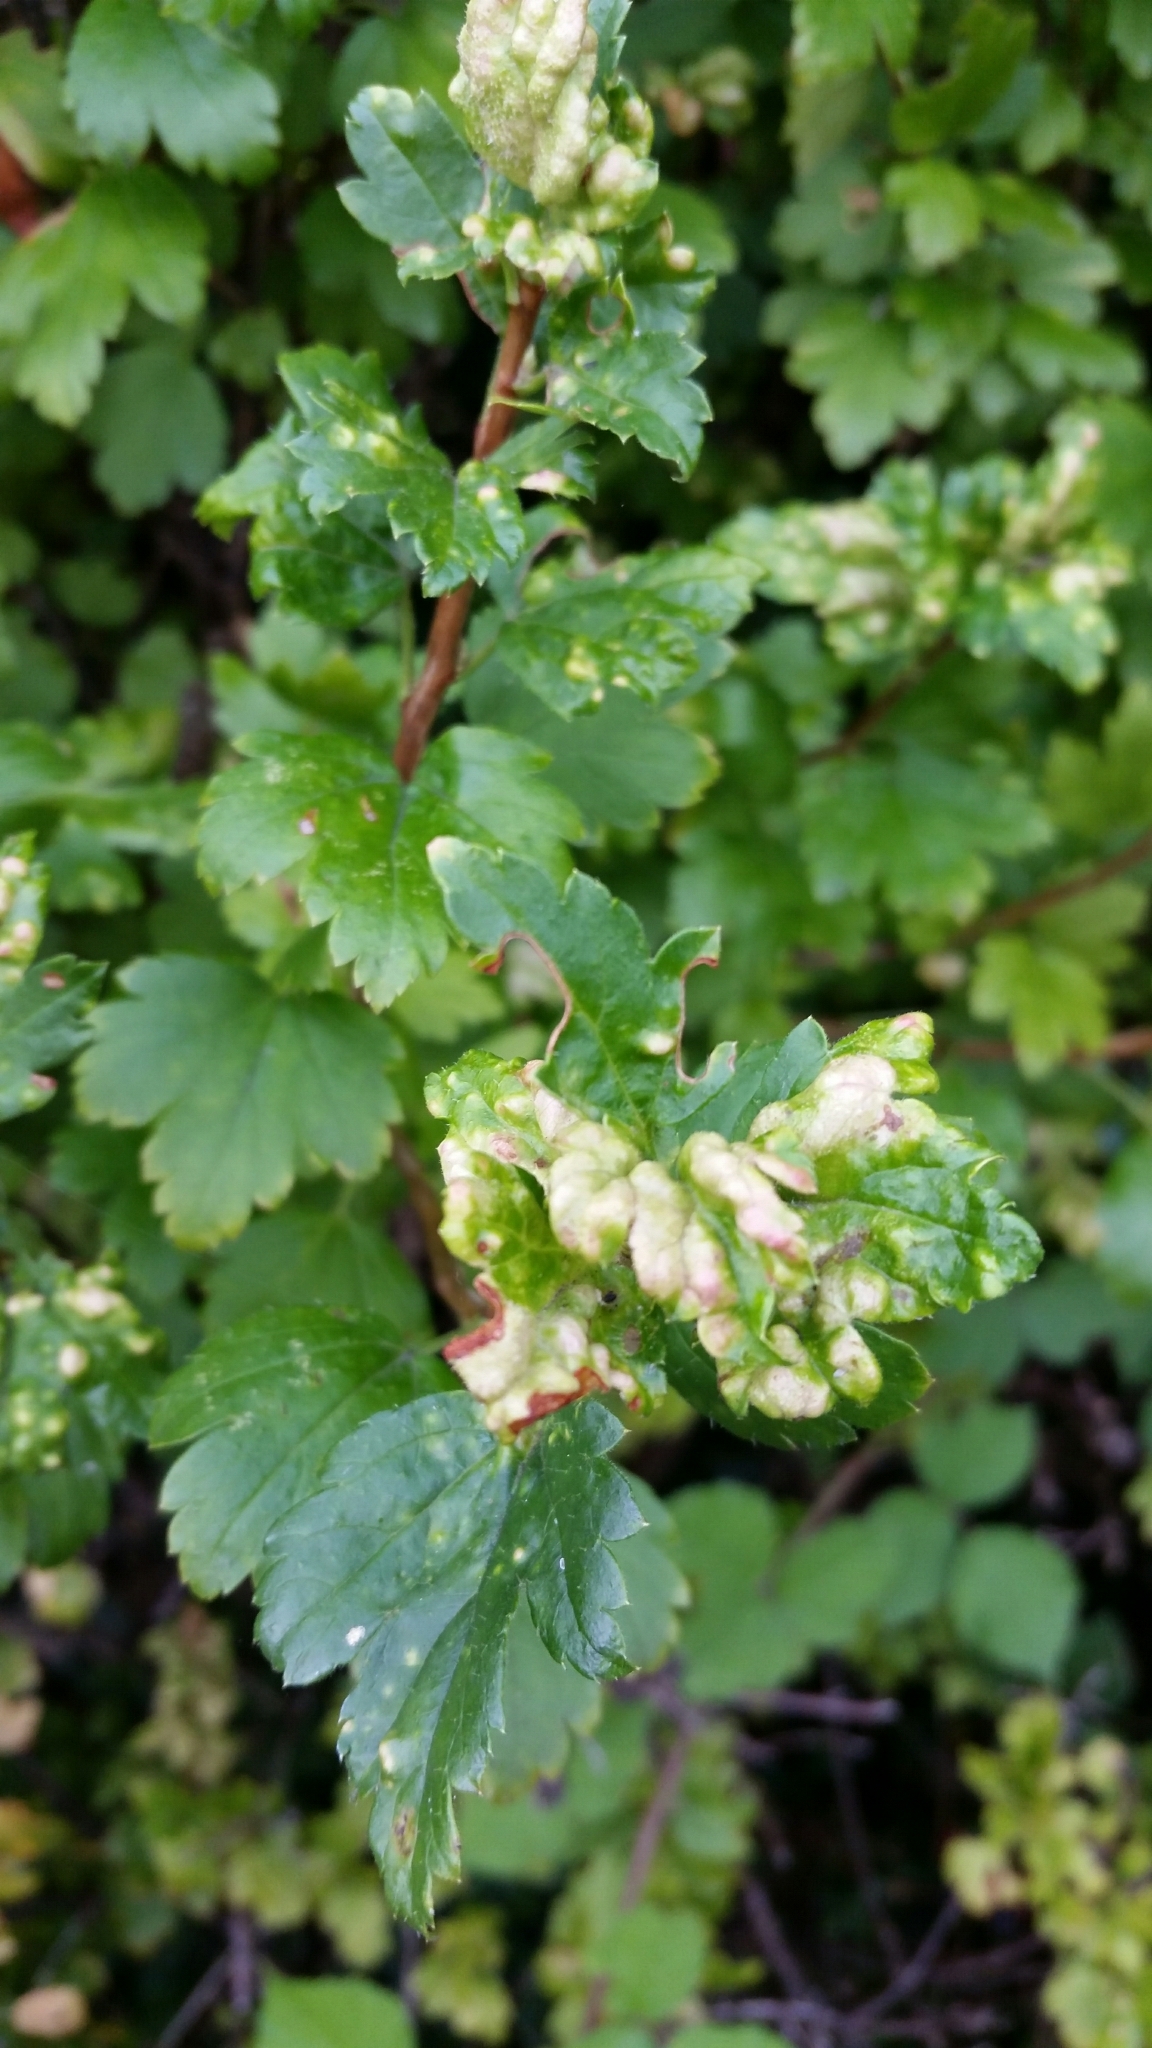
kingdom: Animalia
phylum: Arthropoda
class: Insecta
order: Hemiptera
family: Aphididae
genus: Cryptomyzus
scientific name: Cryptomyzus ribis
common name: Currant aphid
